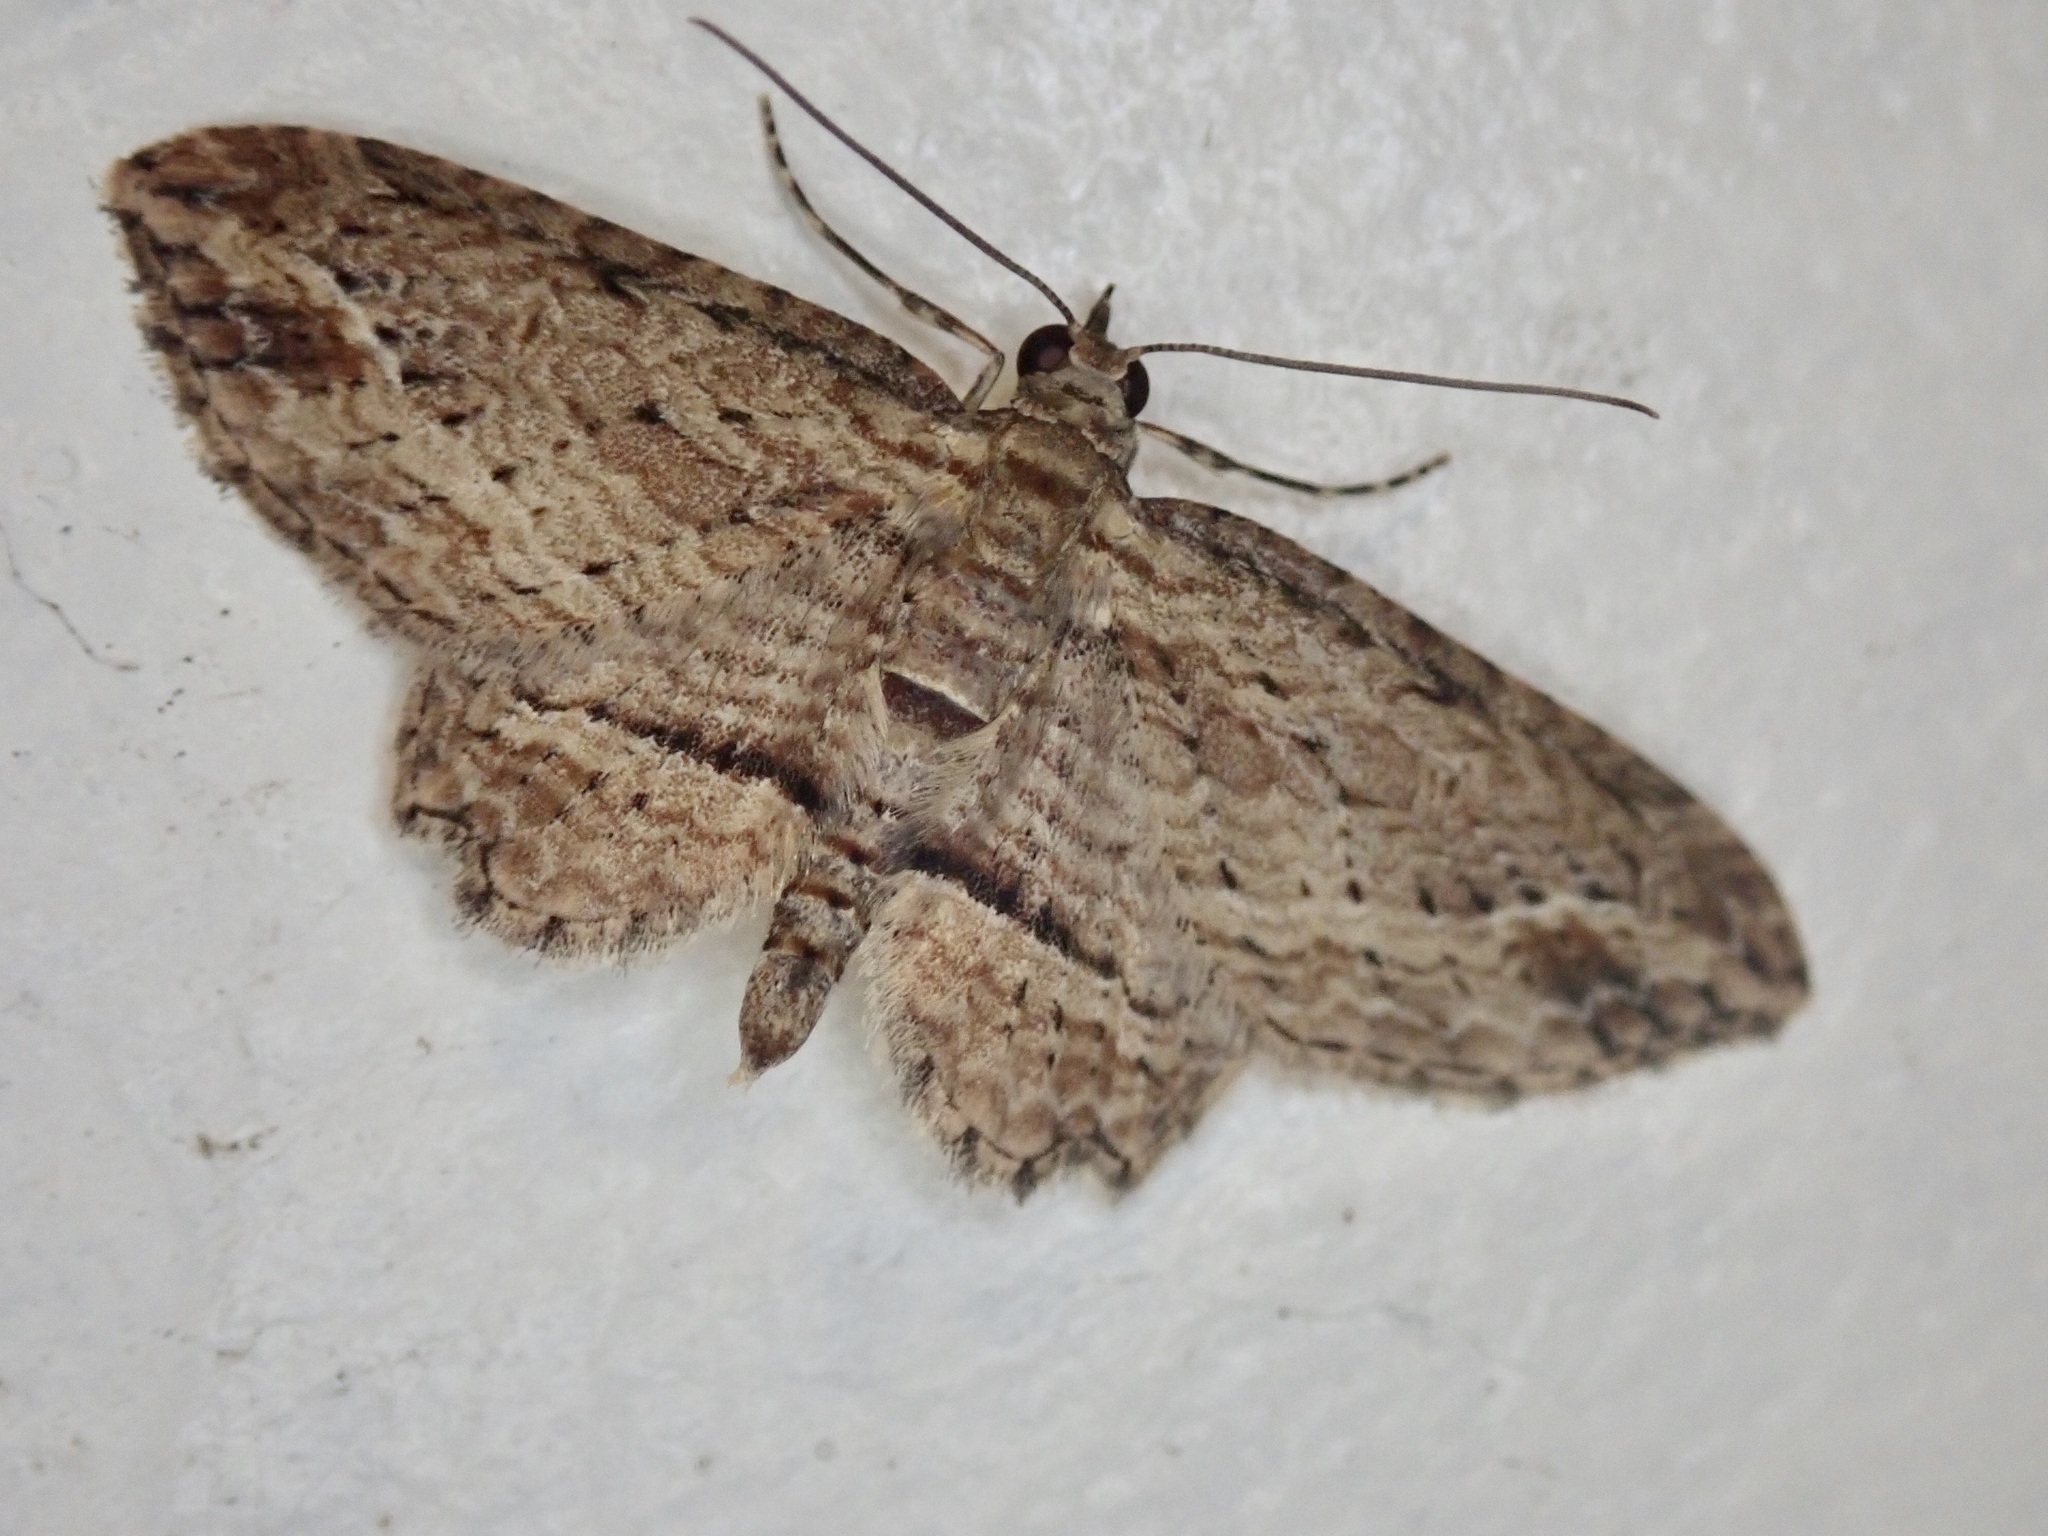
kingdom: Animalia
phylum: Arthropoda
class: Insecta
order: Lepidoptera
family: Geometridae
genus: Chloroclystis
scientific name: Chloroclystis filata
